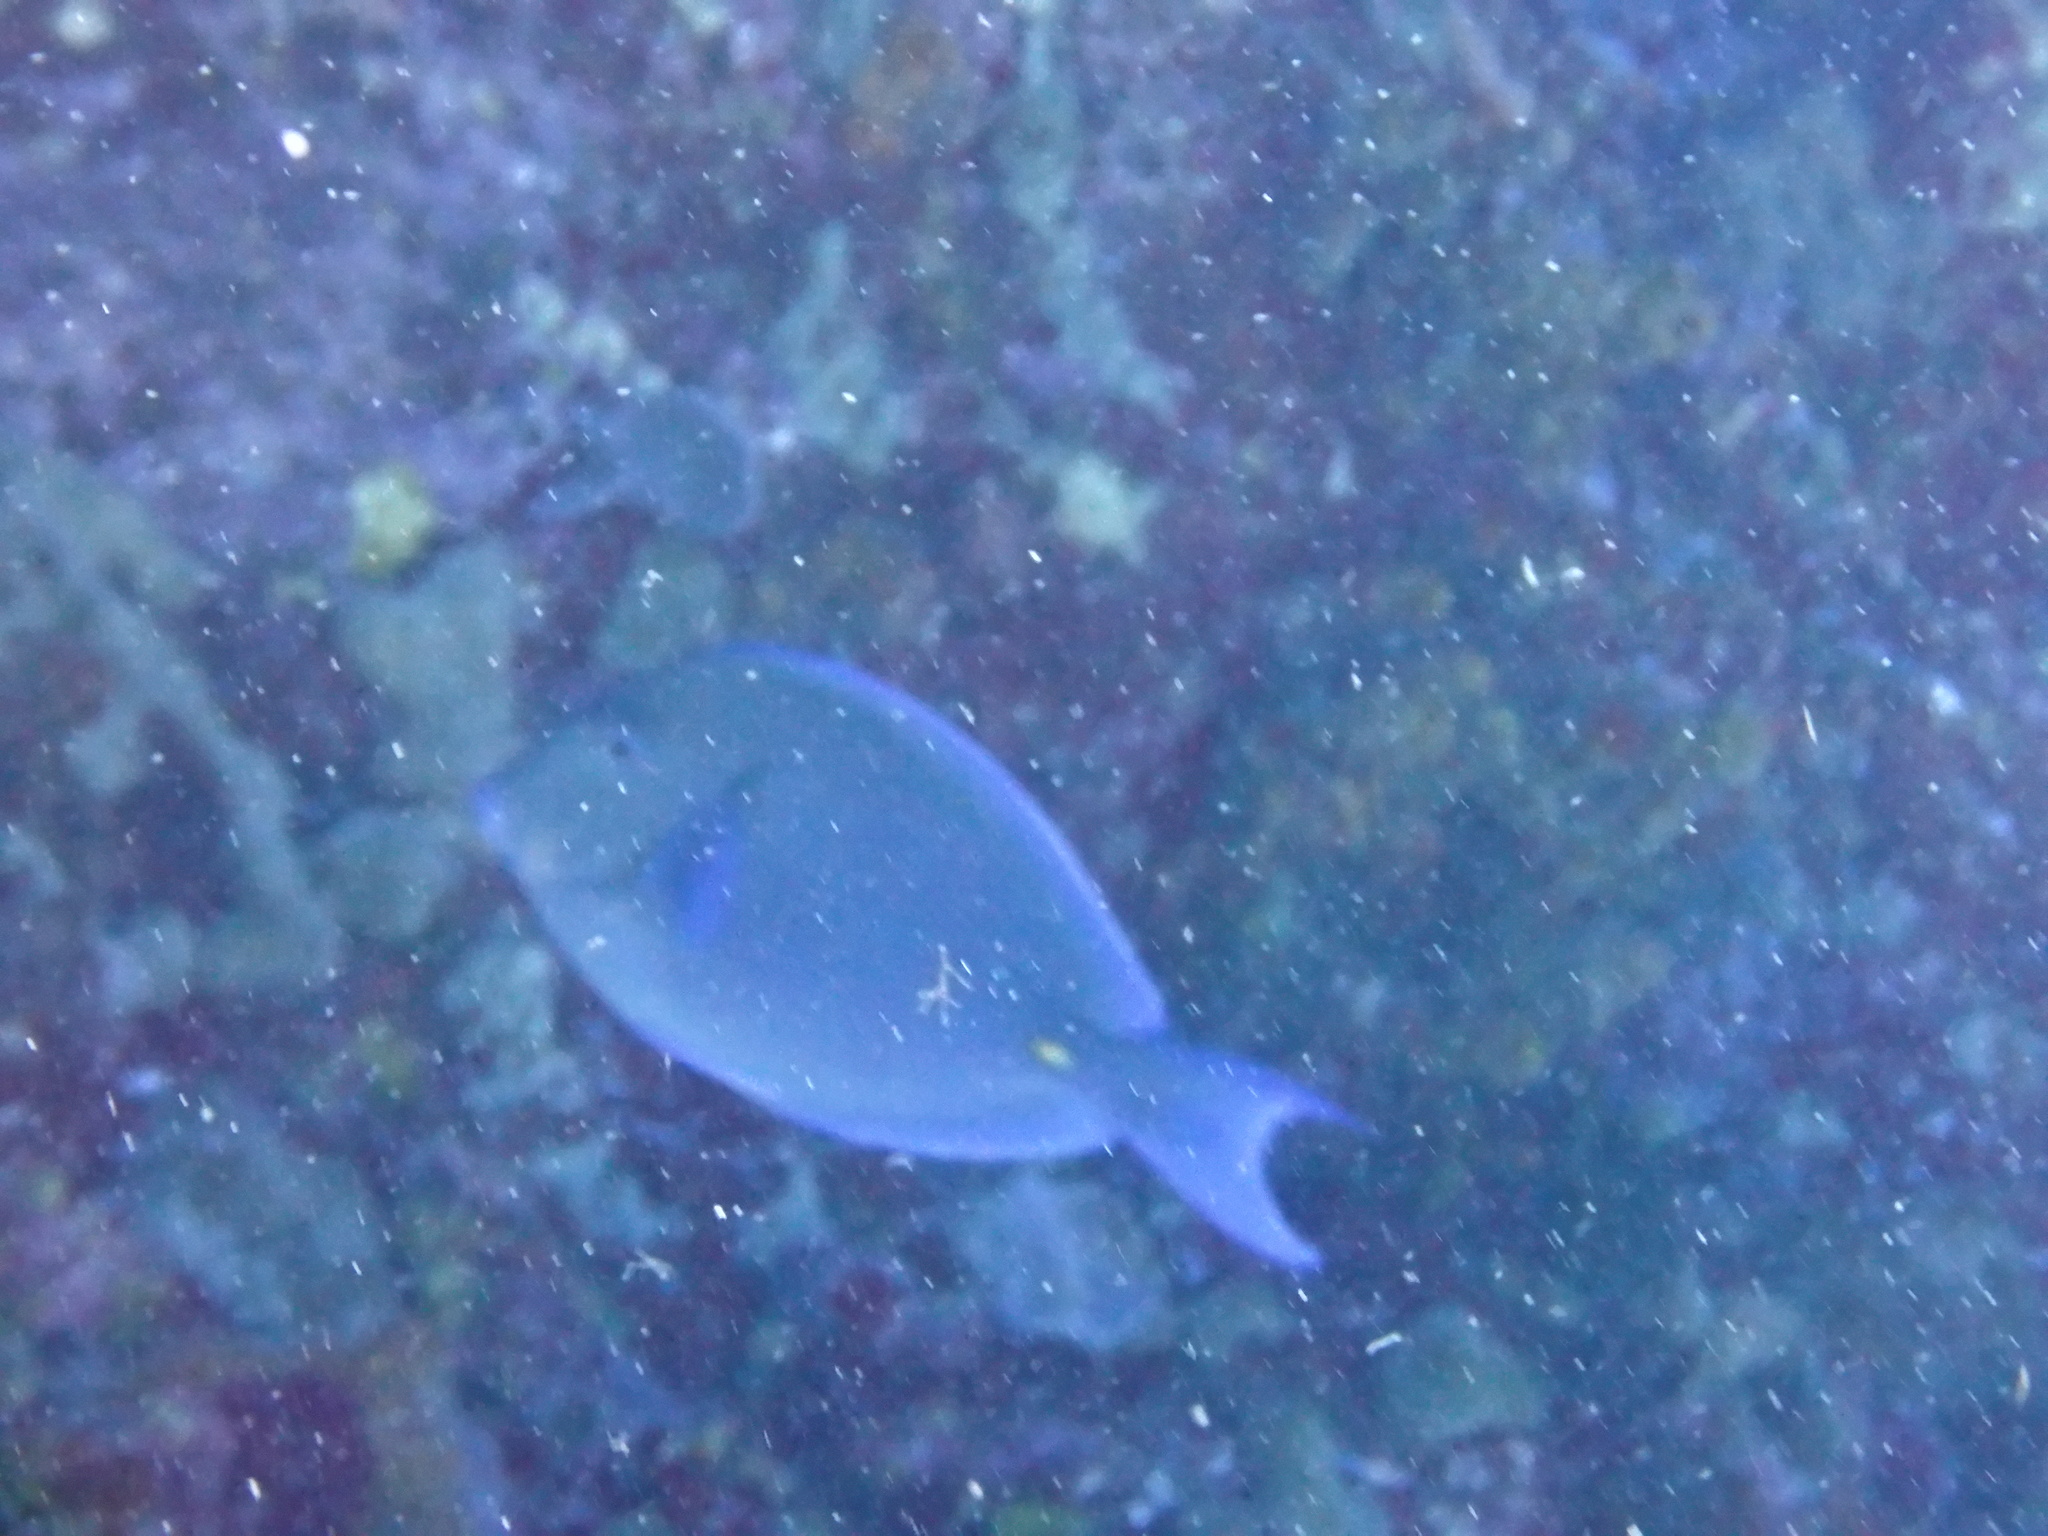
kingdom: Animalia
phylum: Chordata
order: Perciformes
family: Acanthuridae
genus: Acanthurus
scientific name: Acanthurus coeruleus
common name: Blue tang
